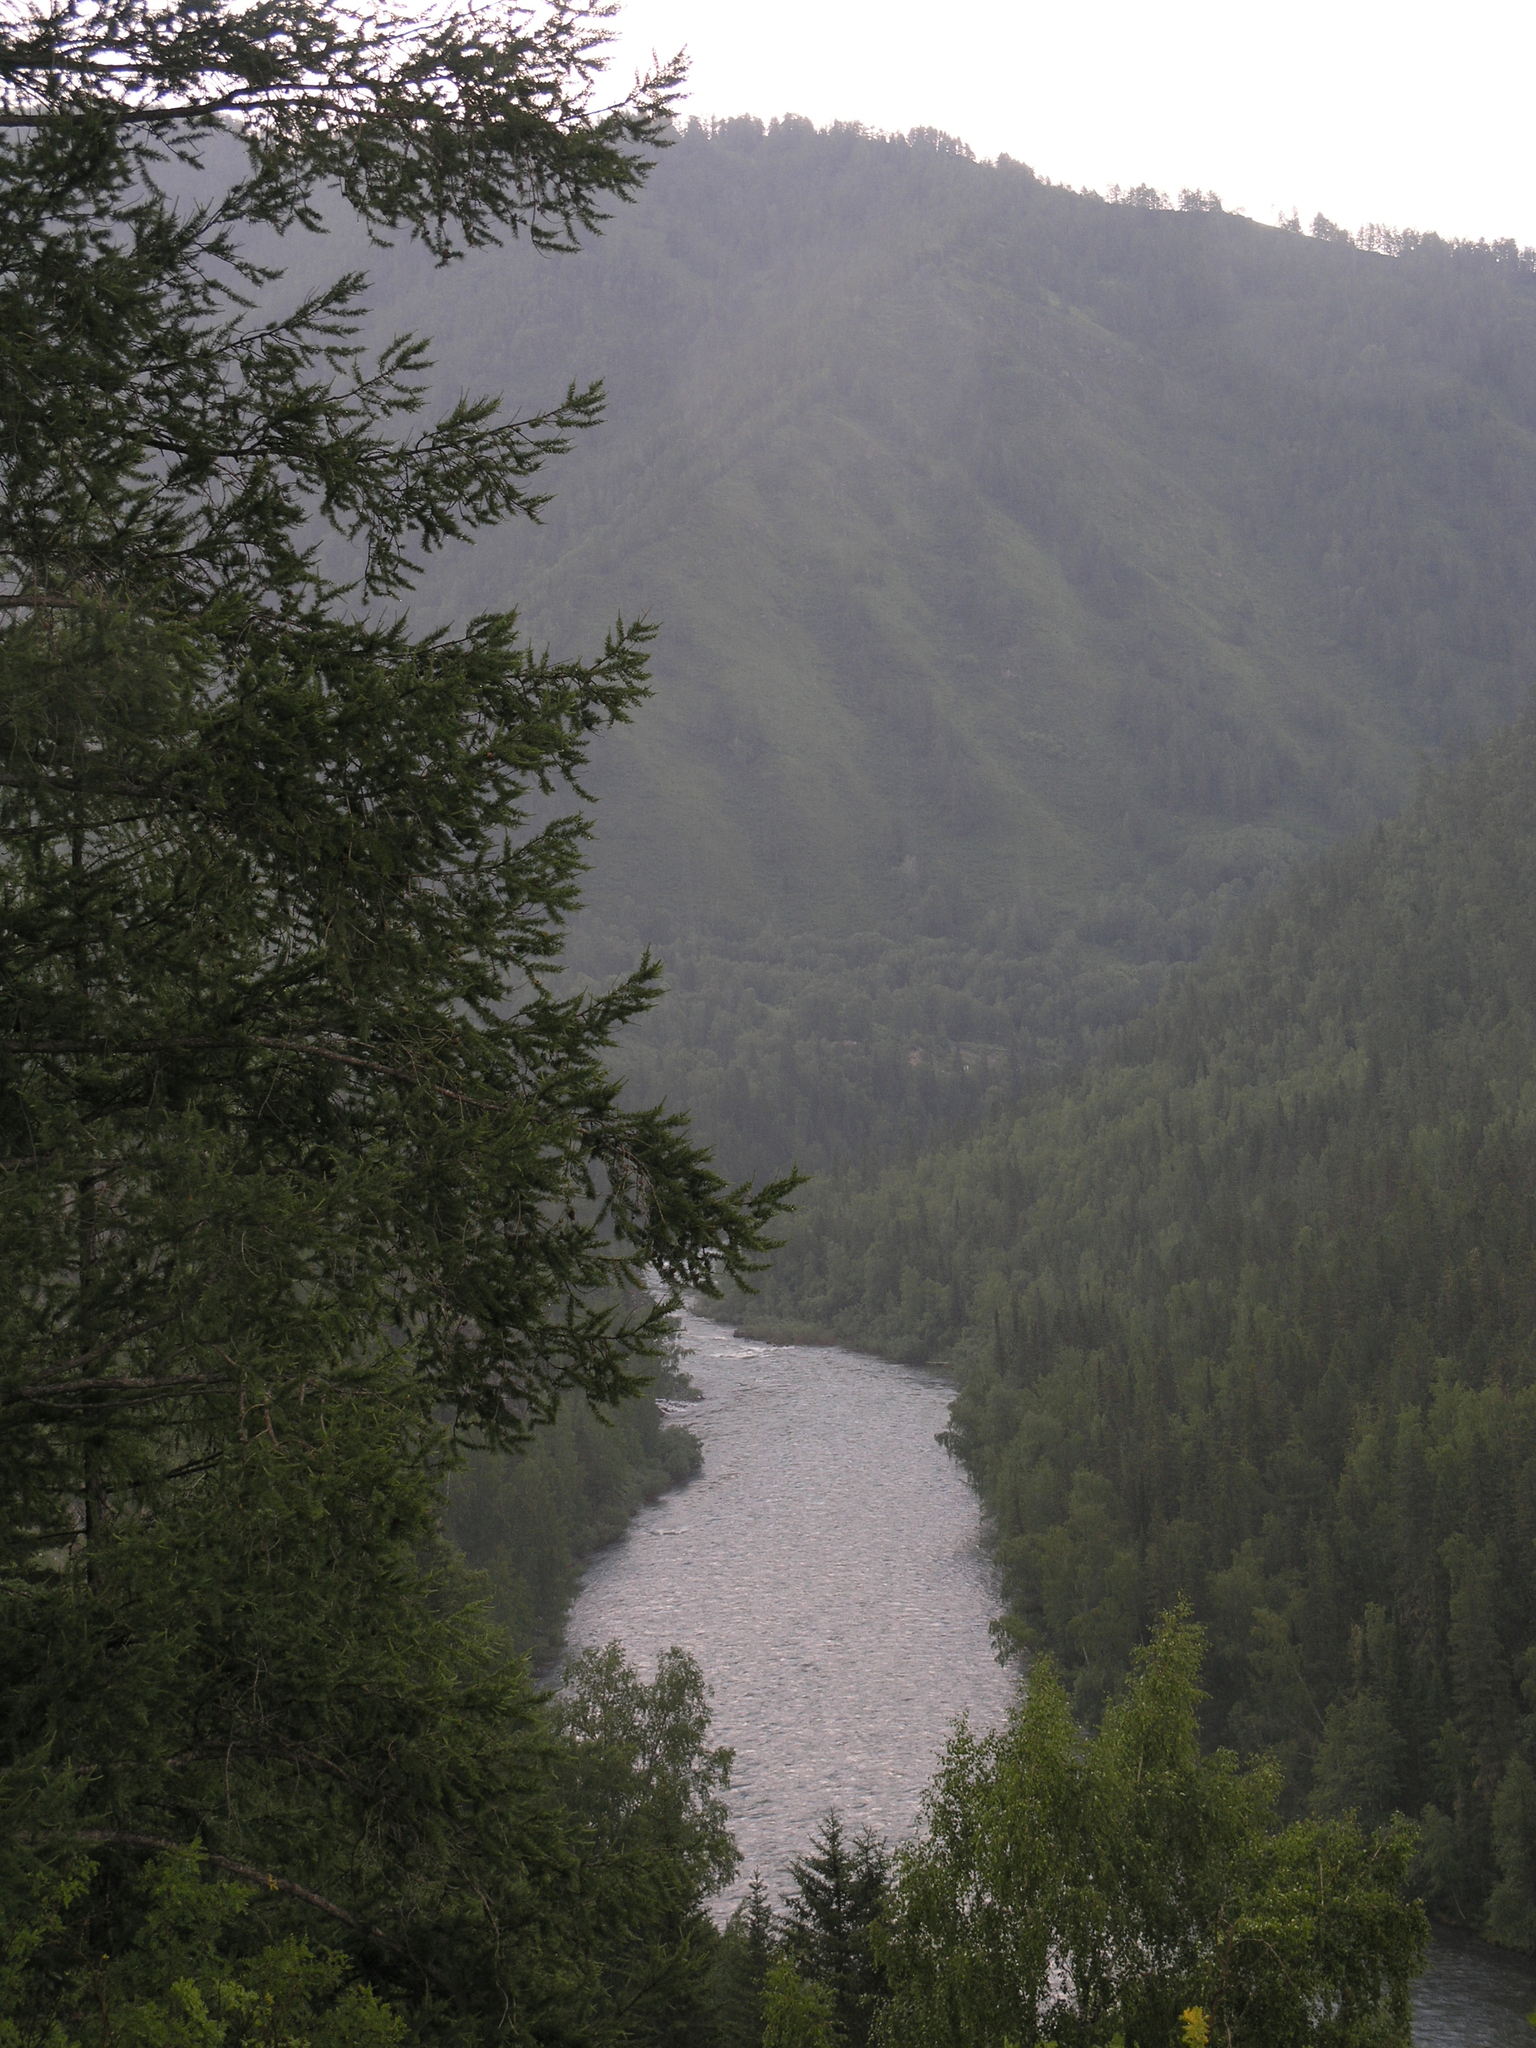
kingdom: Plantae
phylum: Tracheophyta
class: Pinopsida
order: Pinales
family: Pinaceae
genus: Larix
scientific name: Larix sibirica
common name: Siberian larch
